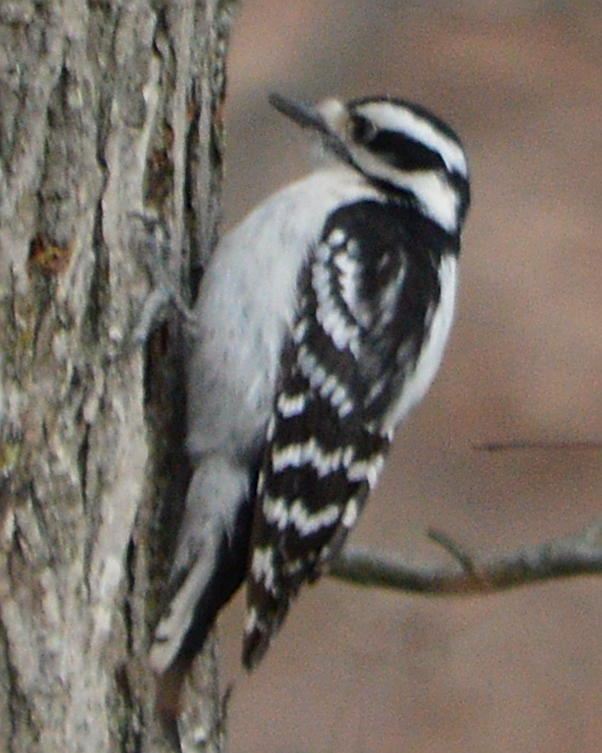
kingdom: Animalia
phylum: Chordata
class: Aves
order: Piciformes
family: Picidae
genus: Dryobates
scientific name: Dryobates pubescens
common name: Downy woodpecker
